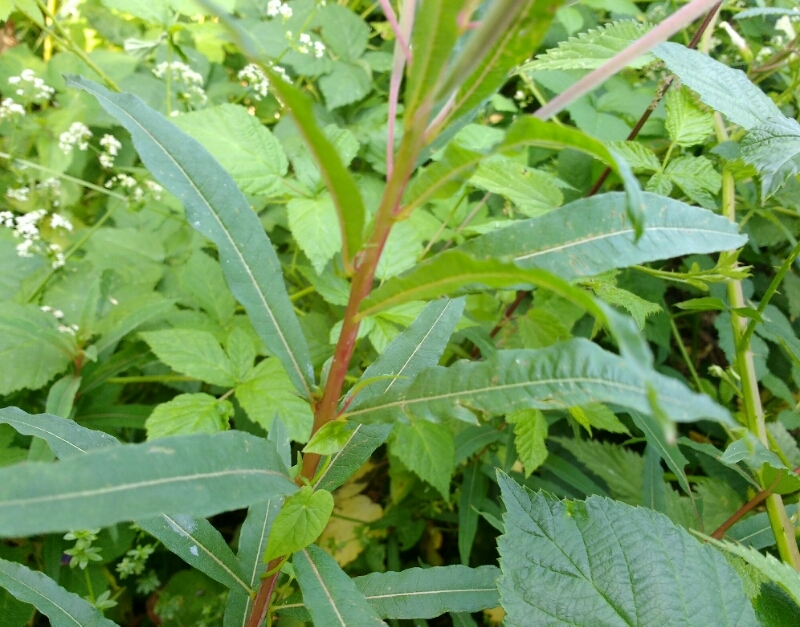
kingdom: Plantae
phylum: Tracheophyta
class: Magnoliopsida
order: Myrtales
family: Onagraceae
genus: Chamaenerion
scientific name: Chamaenerion angustifolium
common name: Fireweed
